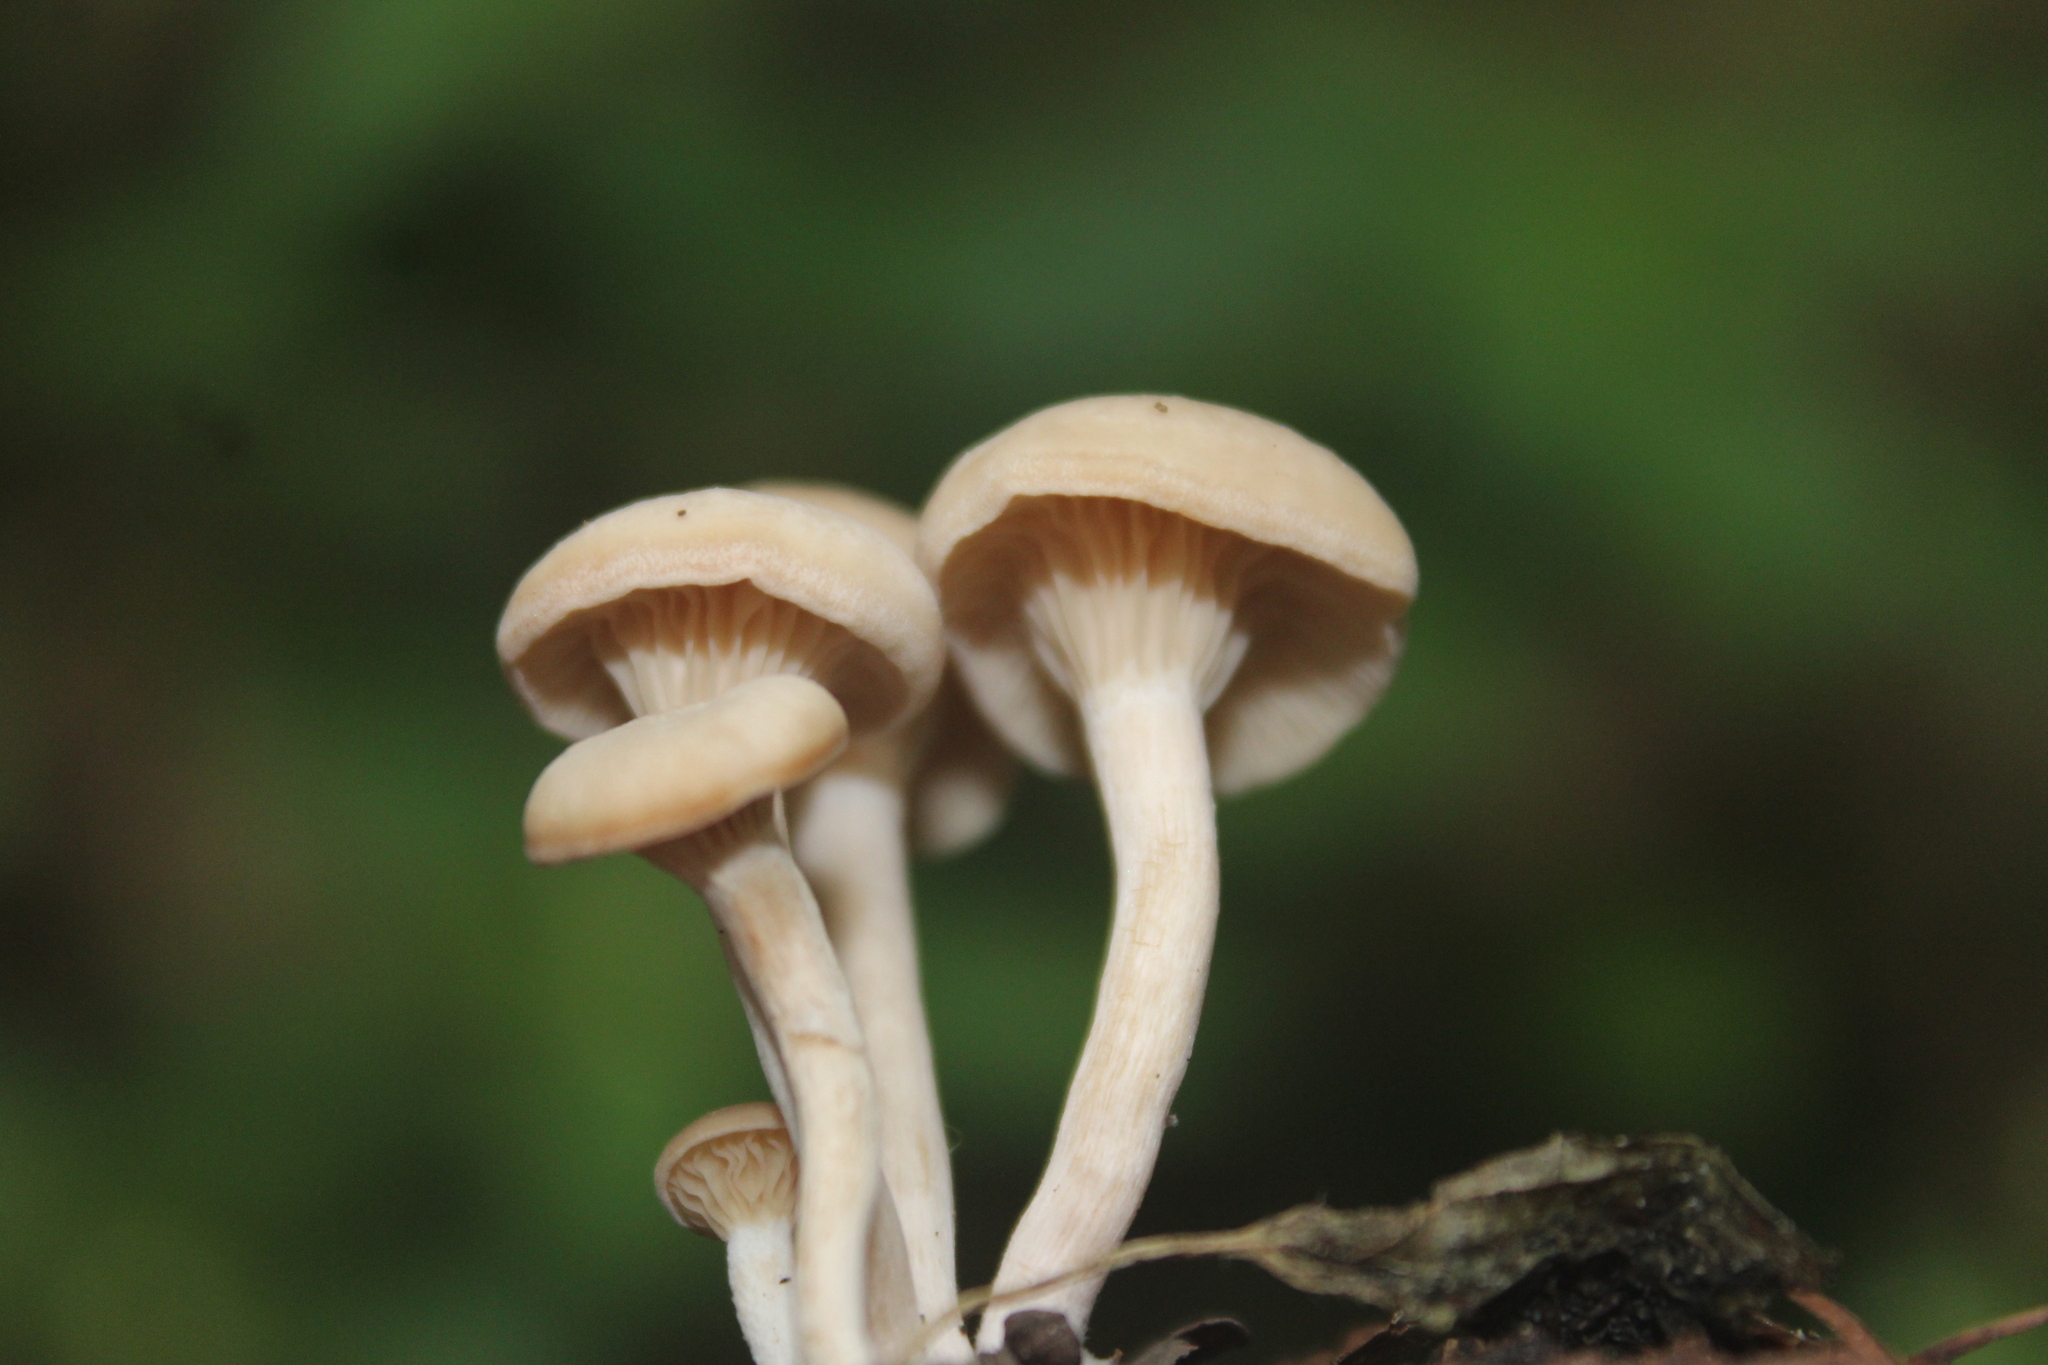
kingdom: Fungi
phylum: Basidiomycota
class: Agaricomycetes
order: Agaricales
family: Omphalotaceae
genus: Collybiopsis
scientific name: Collybiopsis confluens
